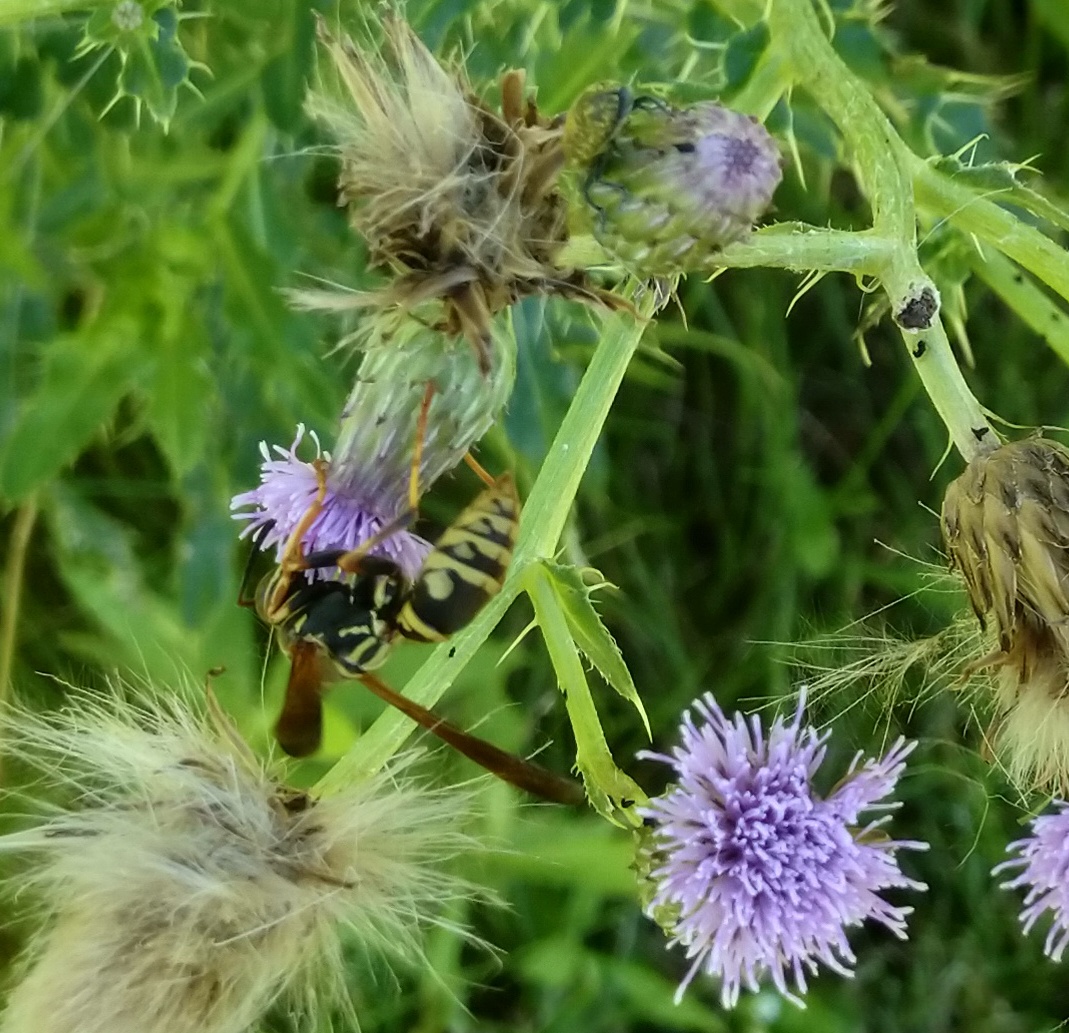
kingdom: Animalia
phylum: Arthropoda
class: Insecta
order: Hymenoptera
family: Eumenidae
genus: Polistes
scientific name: Polistes fuscatus
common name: Dark paper wasp
